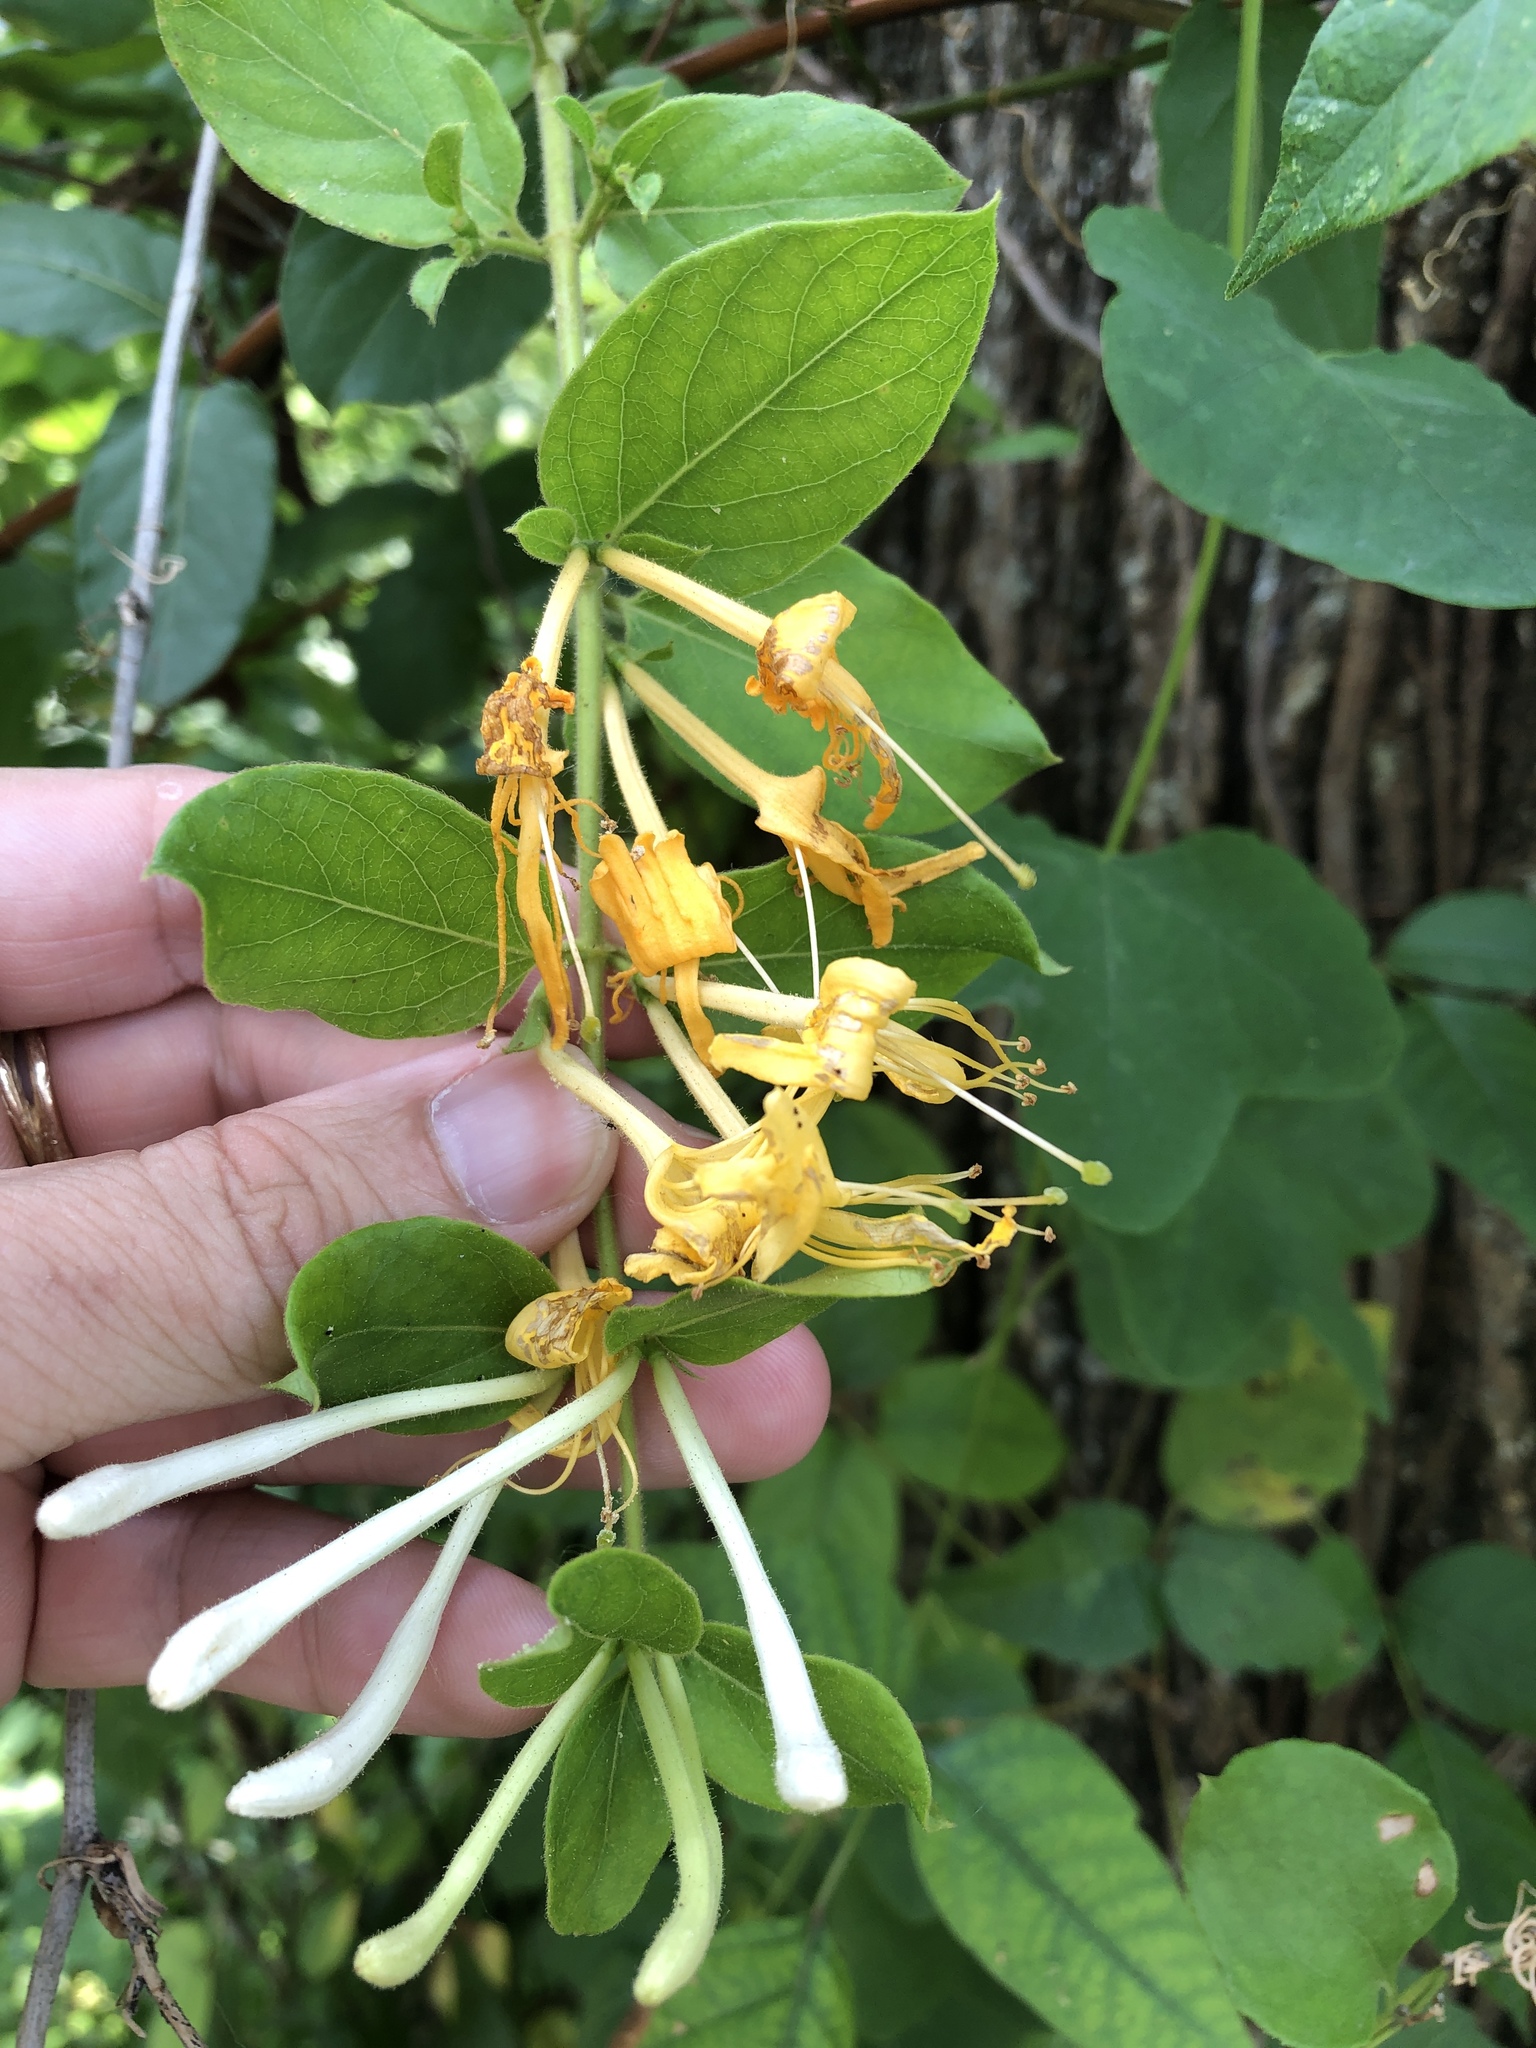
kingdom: Plantae
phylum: Tracheophyta
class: Magnoliopsida
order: Dipsacales
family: Caprifoliaceae
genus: Lonicera
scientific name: Lonicera japonica
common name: Japanese honeysuckle
